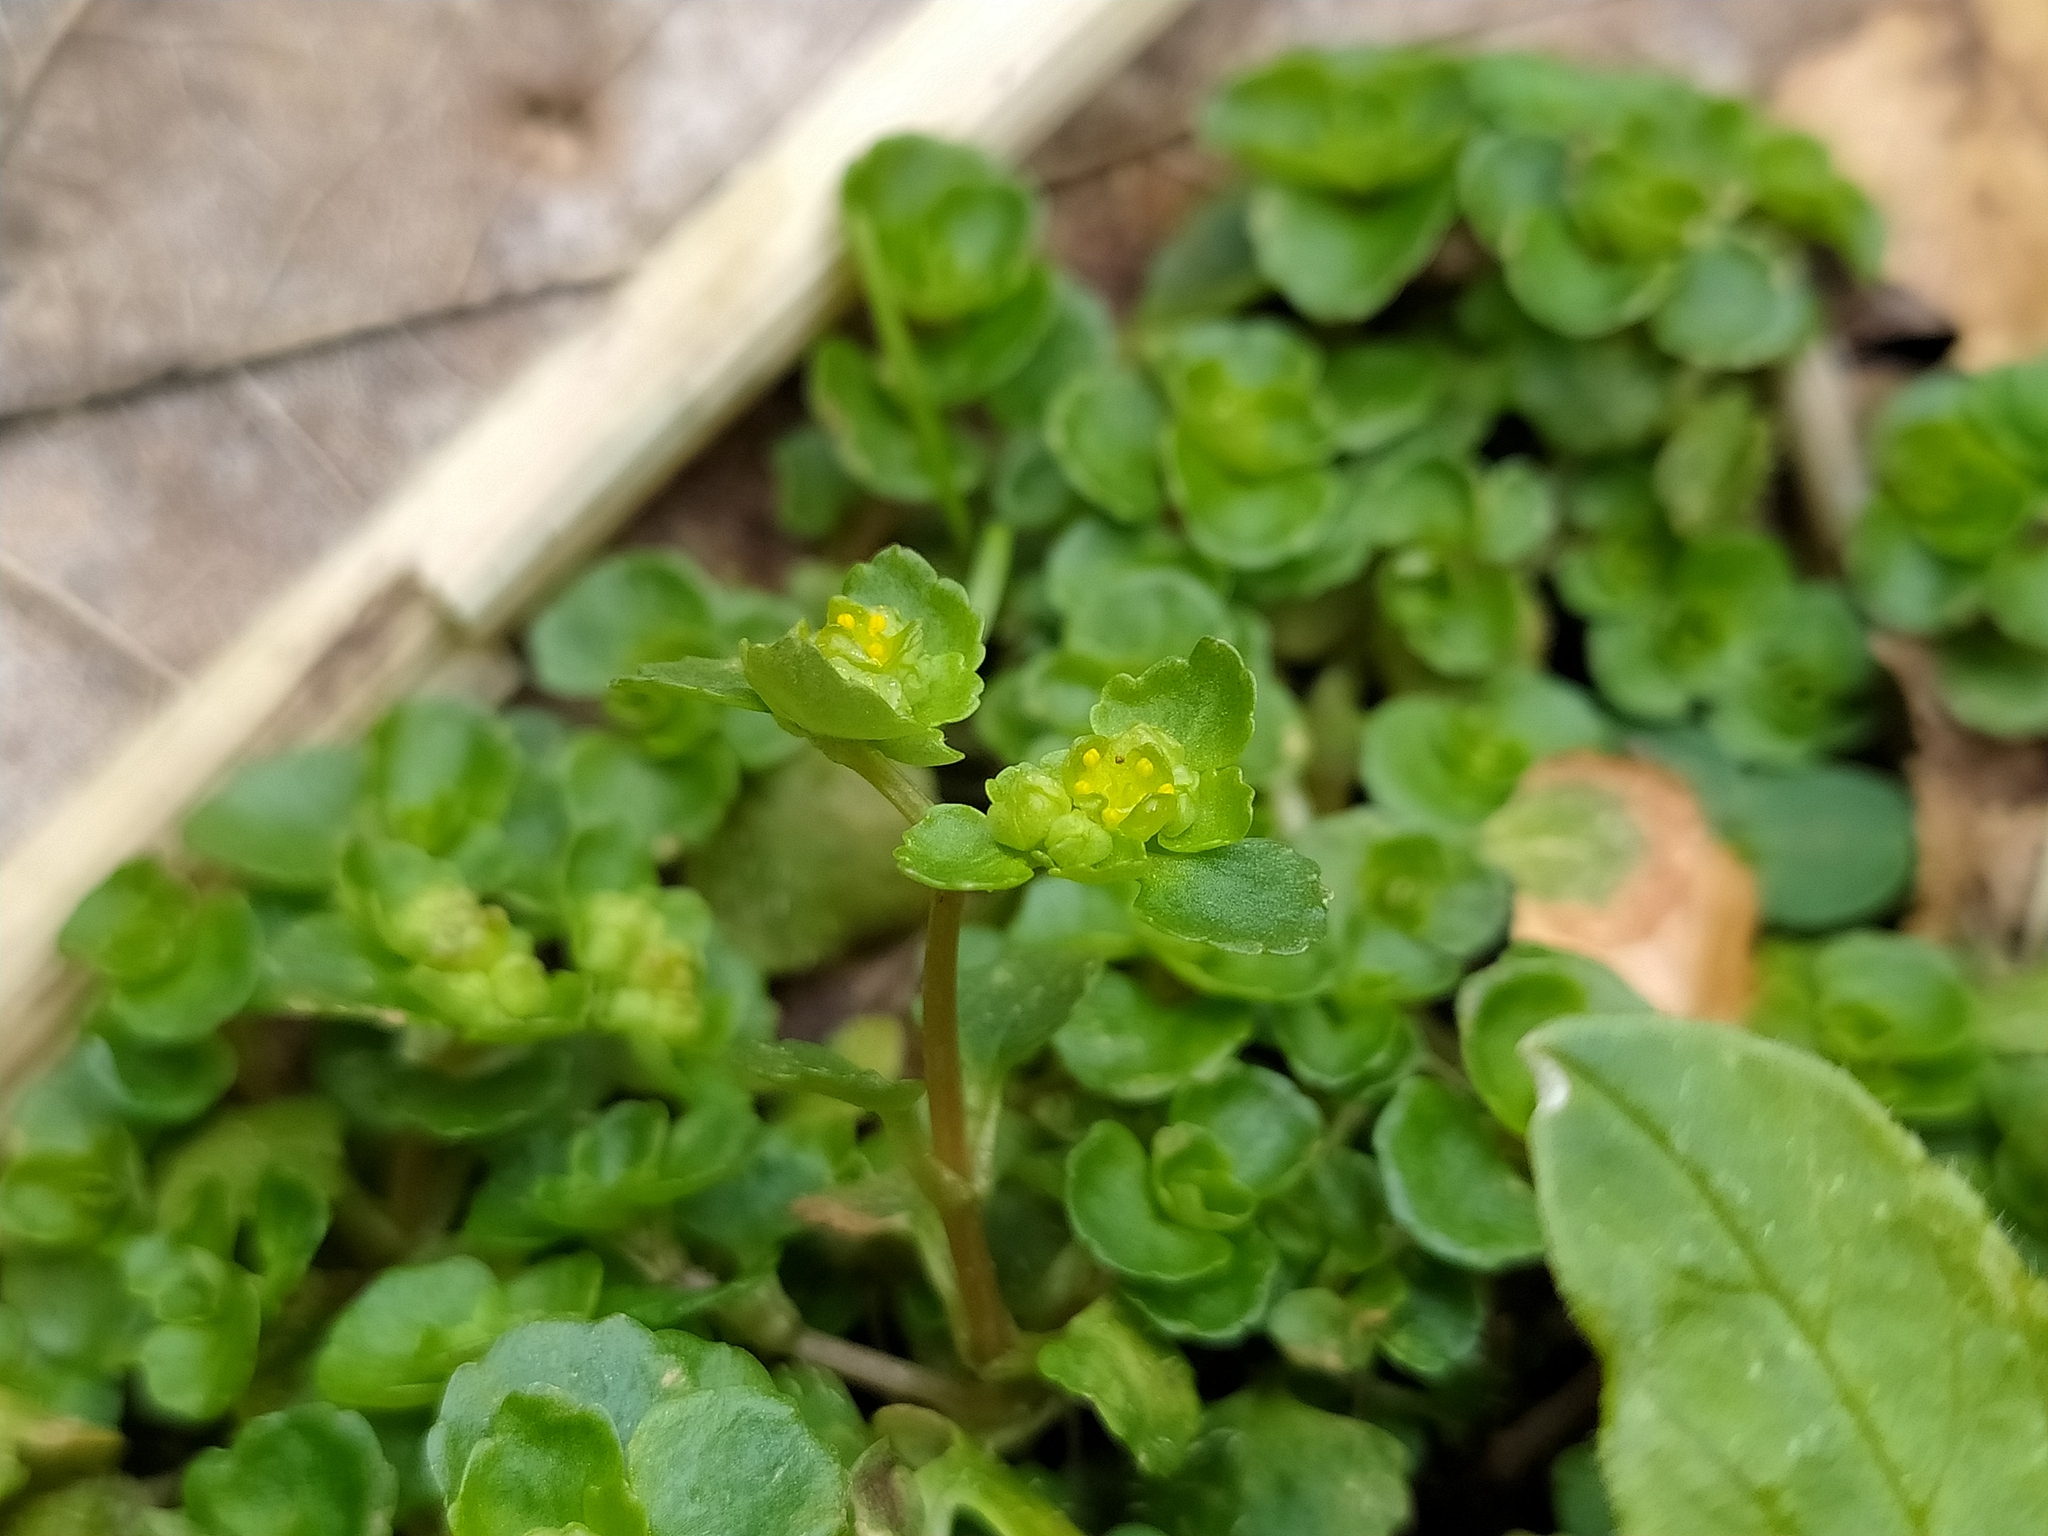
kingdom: Plantae
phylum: Tracheophyta
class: Magnoliopsida
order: Saxifragales
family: Saxifragaceae
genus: Chrysosplenium
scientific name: Chrysosplenium oppositifolium
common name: Opposite-leaved golden-saxifrage
